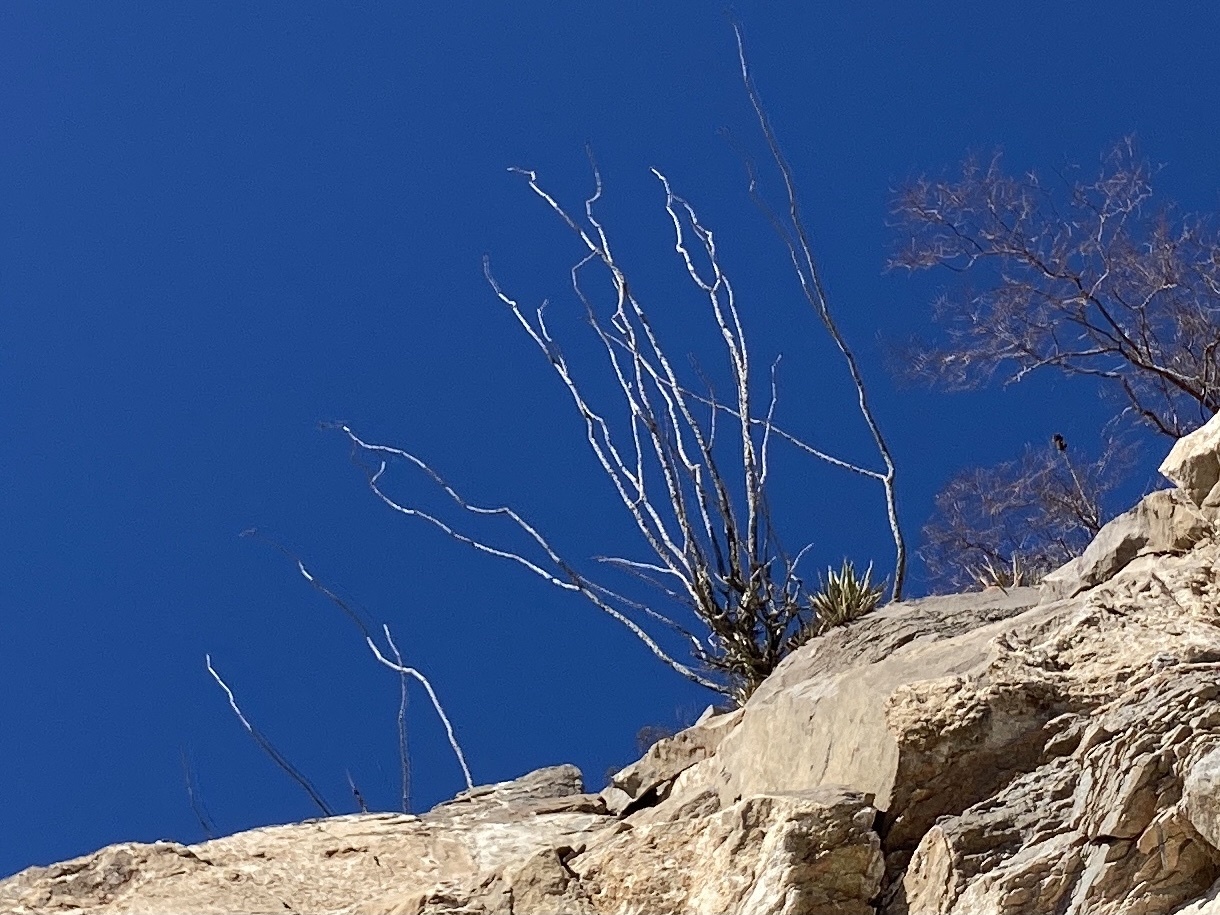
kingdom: Plantae
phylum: Tracheophyta
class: Magnoliopsida
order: Ericales
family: Fouquieriaceae
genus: Fouquieria
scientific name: Fouquieria splendens
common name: Vine-cactus
